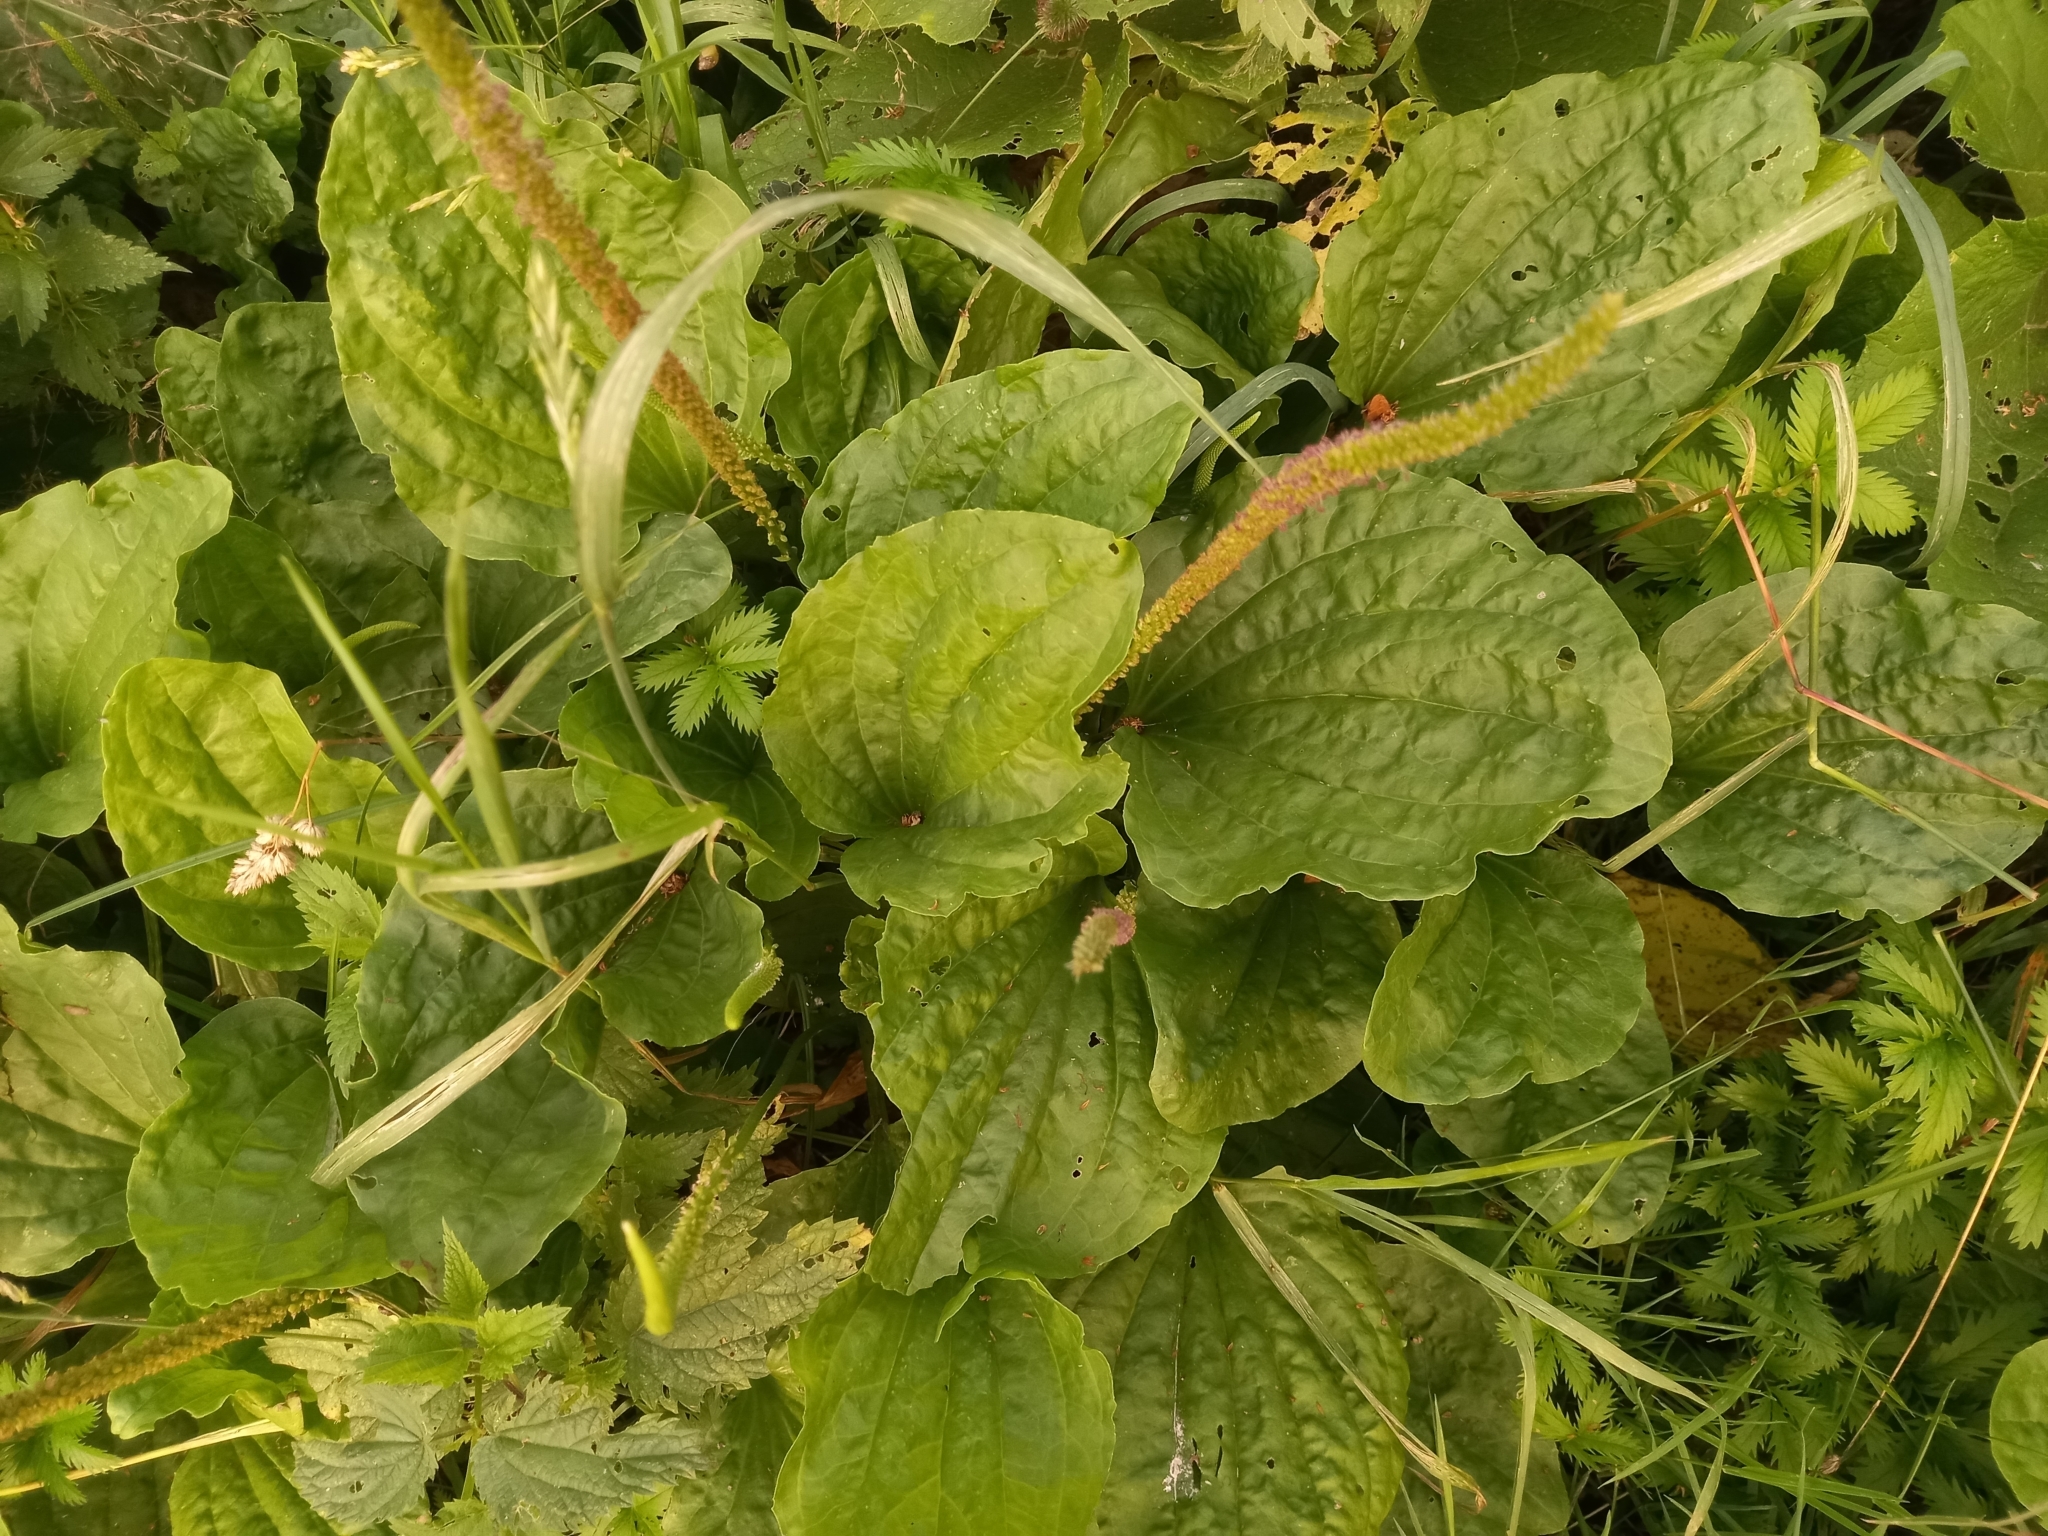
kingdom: Plantae
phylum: Tracheophyta
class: Magnoliopsida
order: Lamiales
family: Plantaginaceae
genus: Plantago
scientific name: Plantago major
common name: Common plantain
